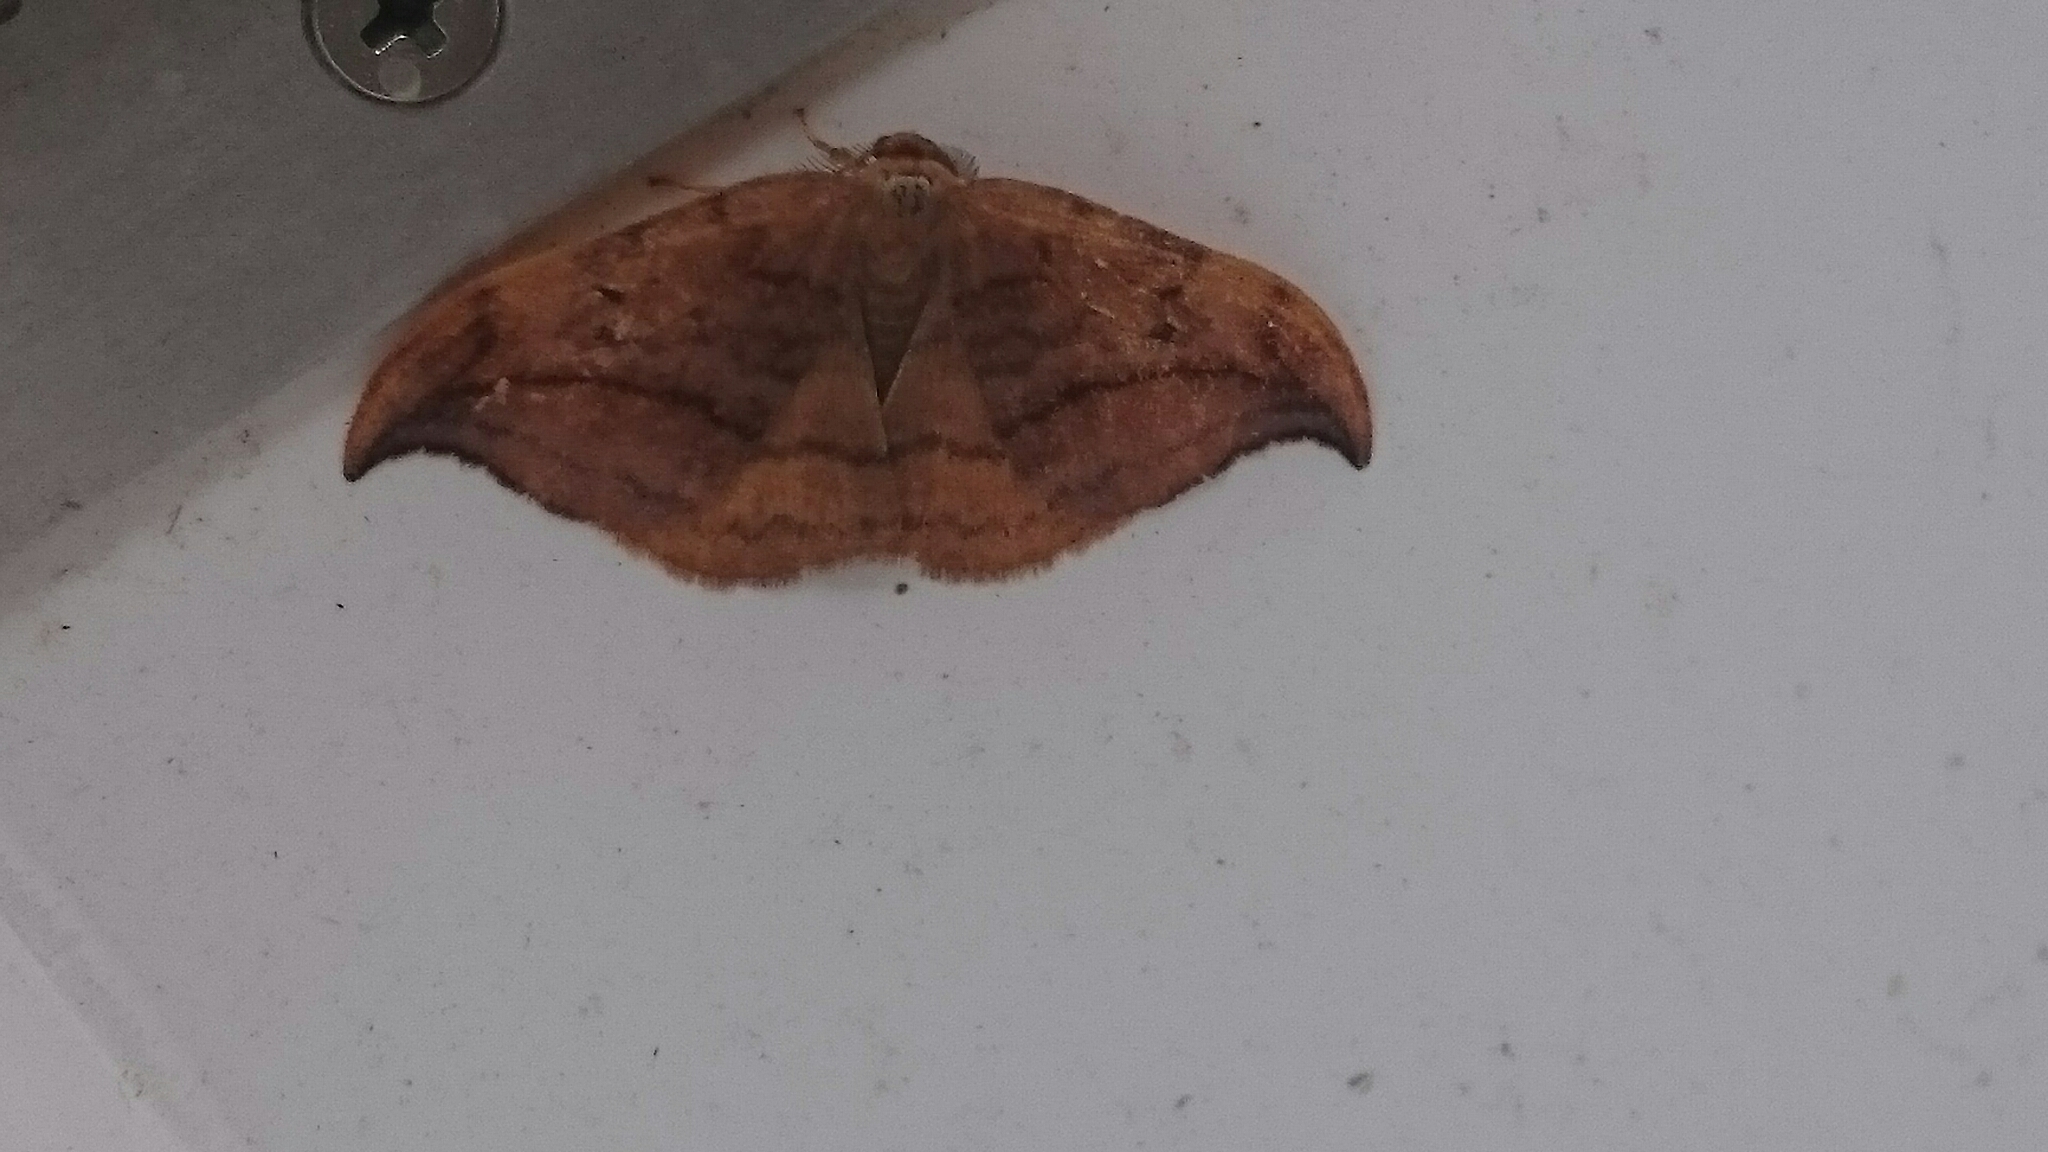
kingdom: Animalia
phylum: Arthropoda
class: Insecta
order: Lepidoptera
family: Drepanidae
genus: Drepana
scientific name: Drepana curvatula
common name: Dusky hook-tip
